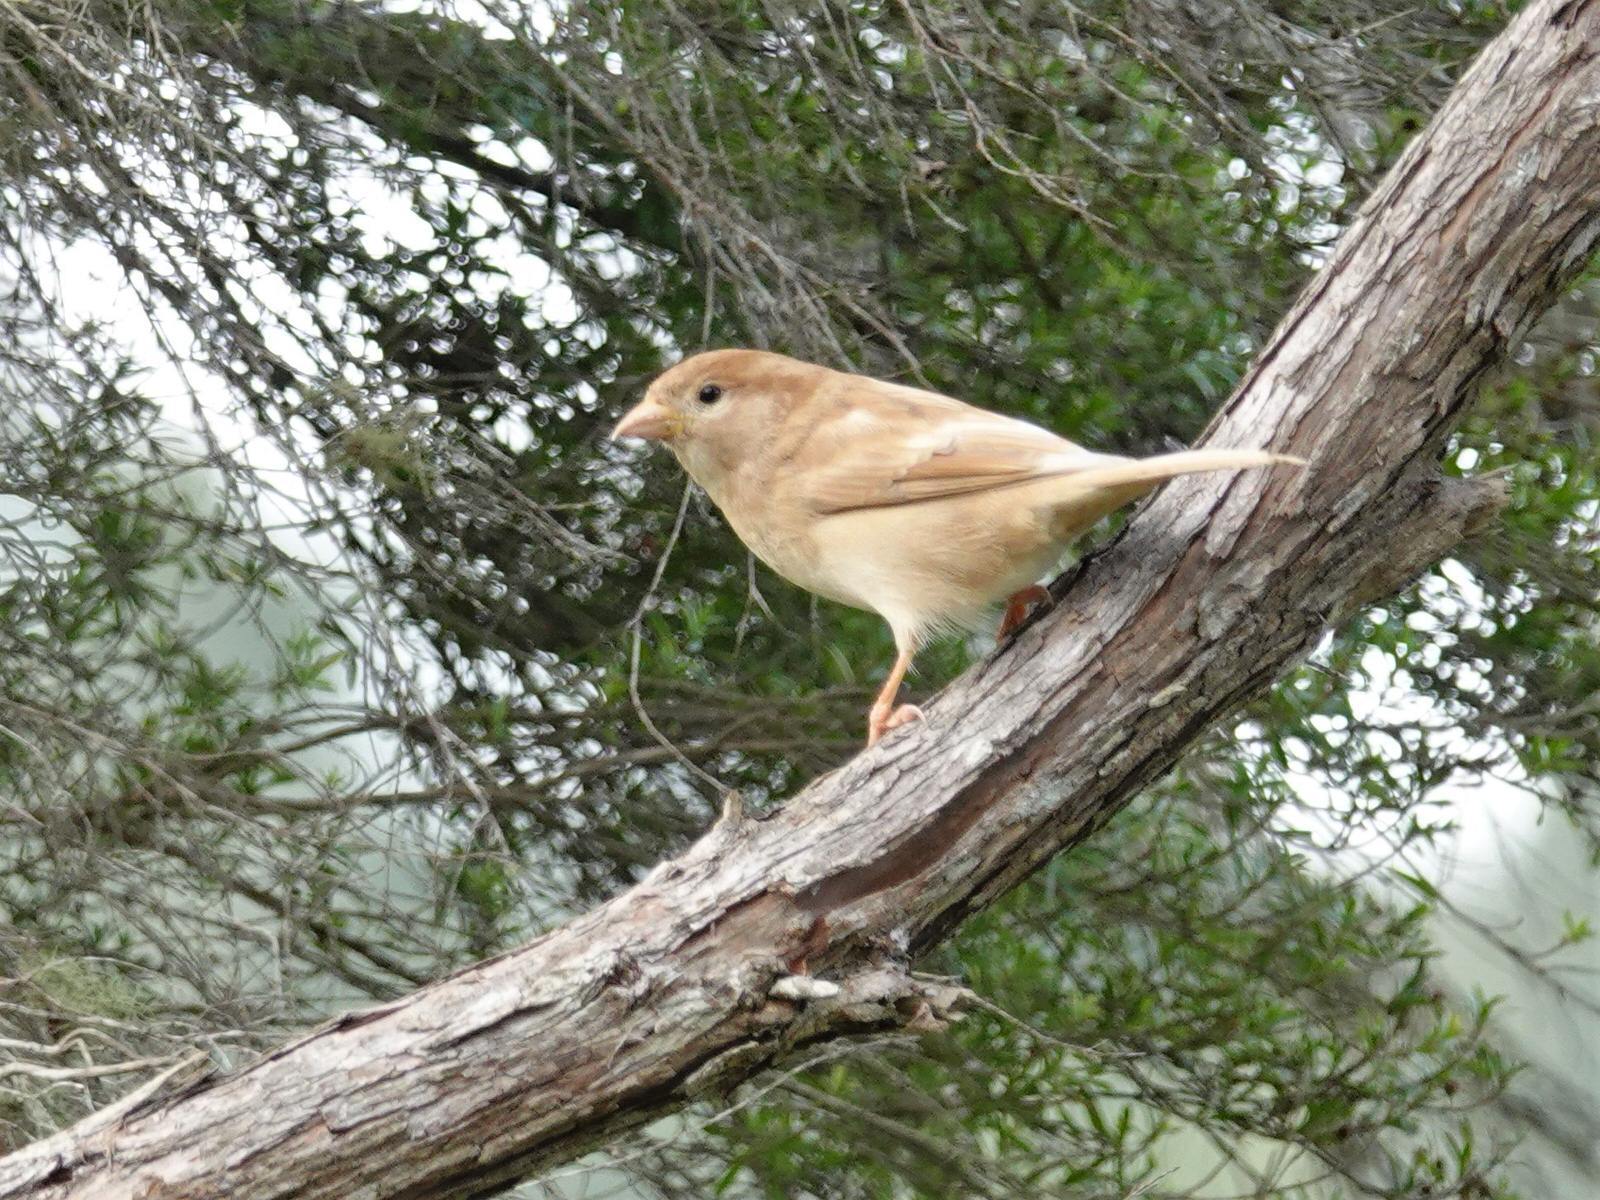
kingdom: Animalia
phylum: Chordata
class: Aves
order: Passeriformes
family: Passeridae
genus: Passer
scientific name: Passer domesticus
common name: House sparrow
